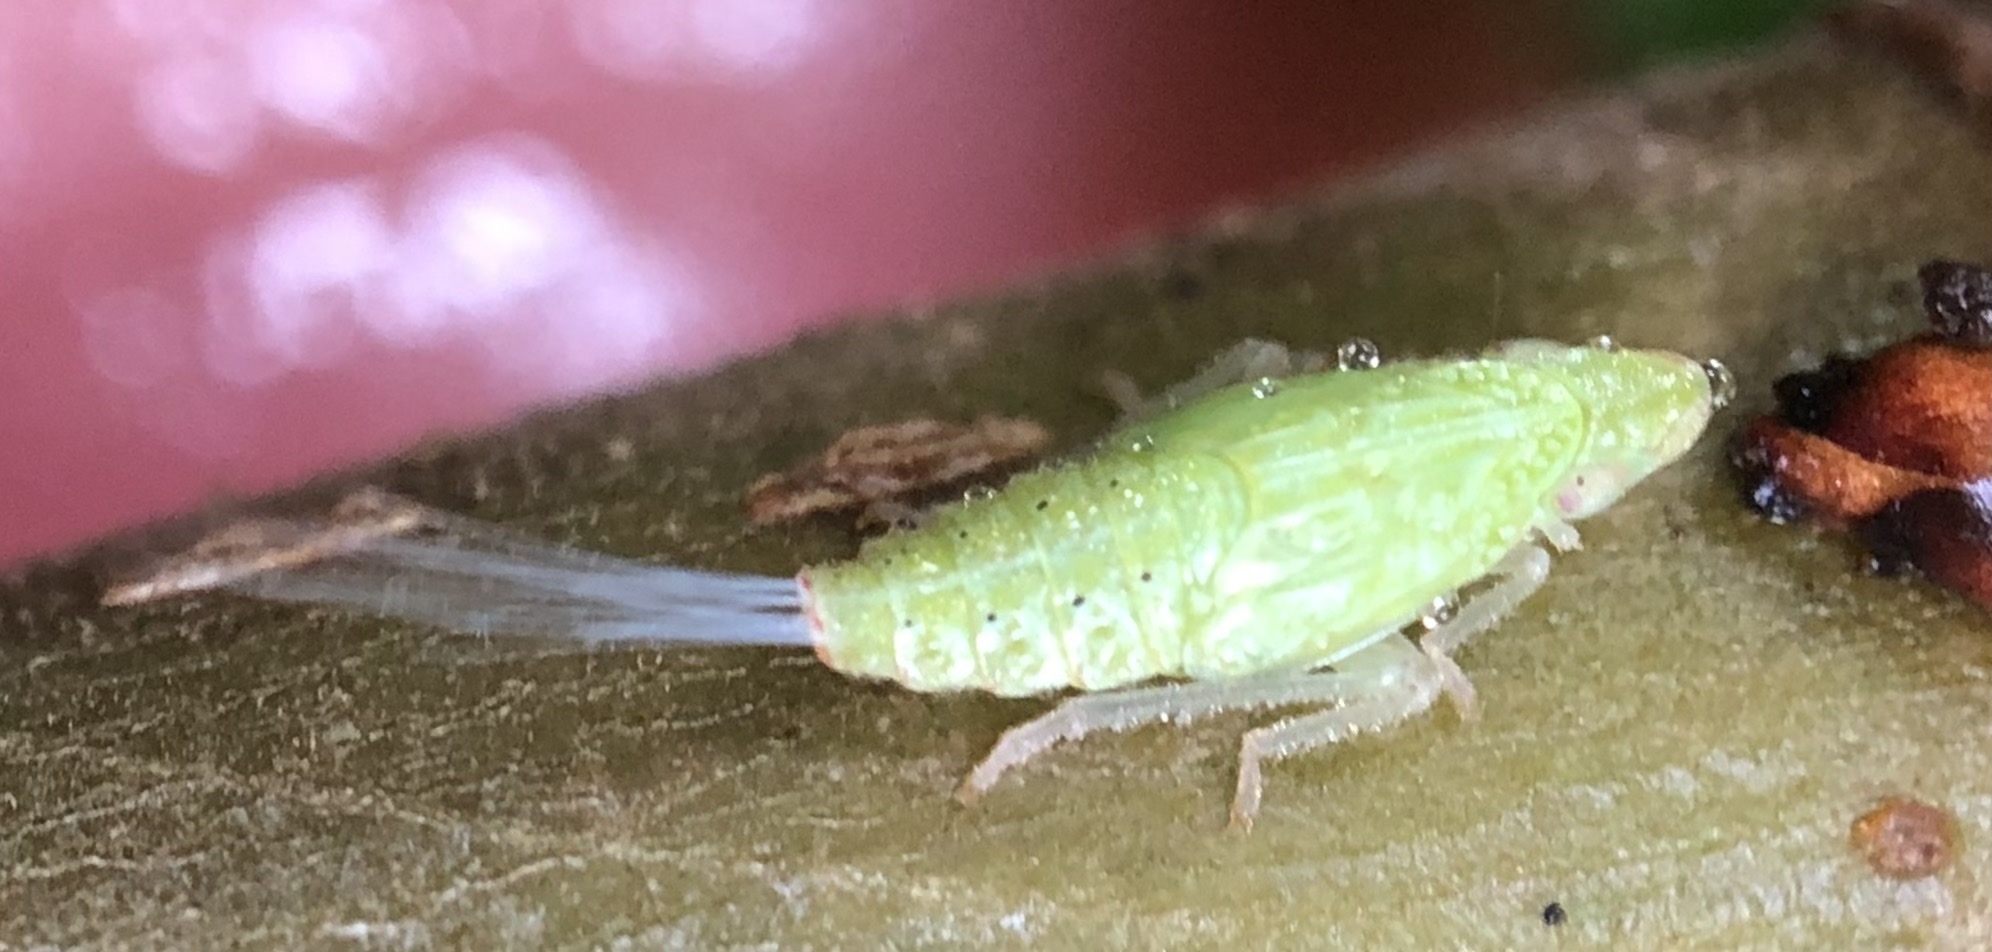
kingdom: Animalia
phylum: Arthropoda
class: Insecta
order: Hemiptera
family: Tropiduchidae
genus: Pelitropis
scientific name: Pelitropis rotulata
